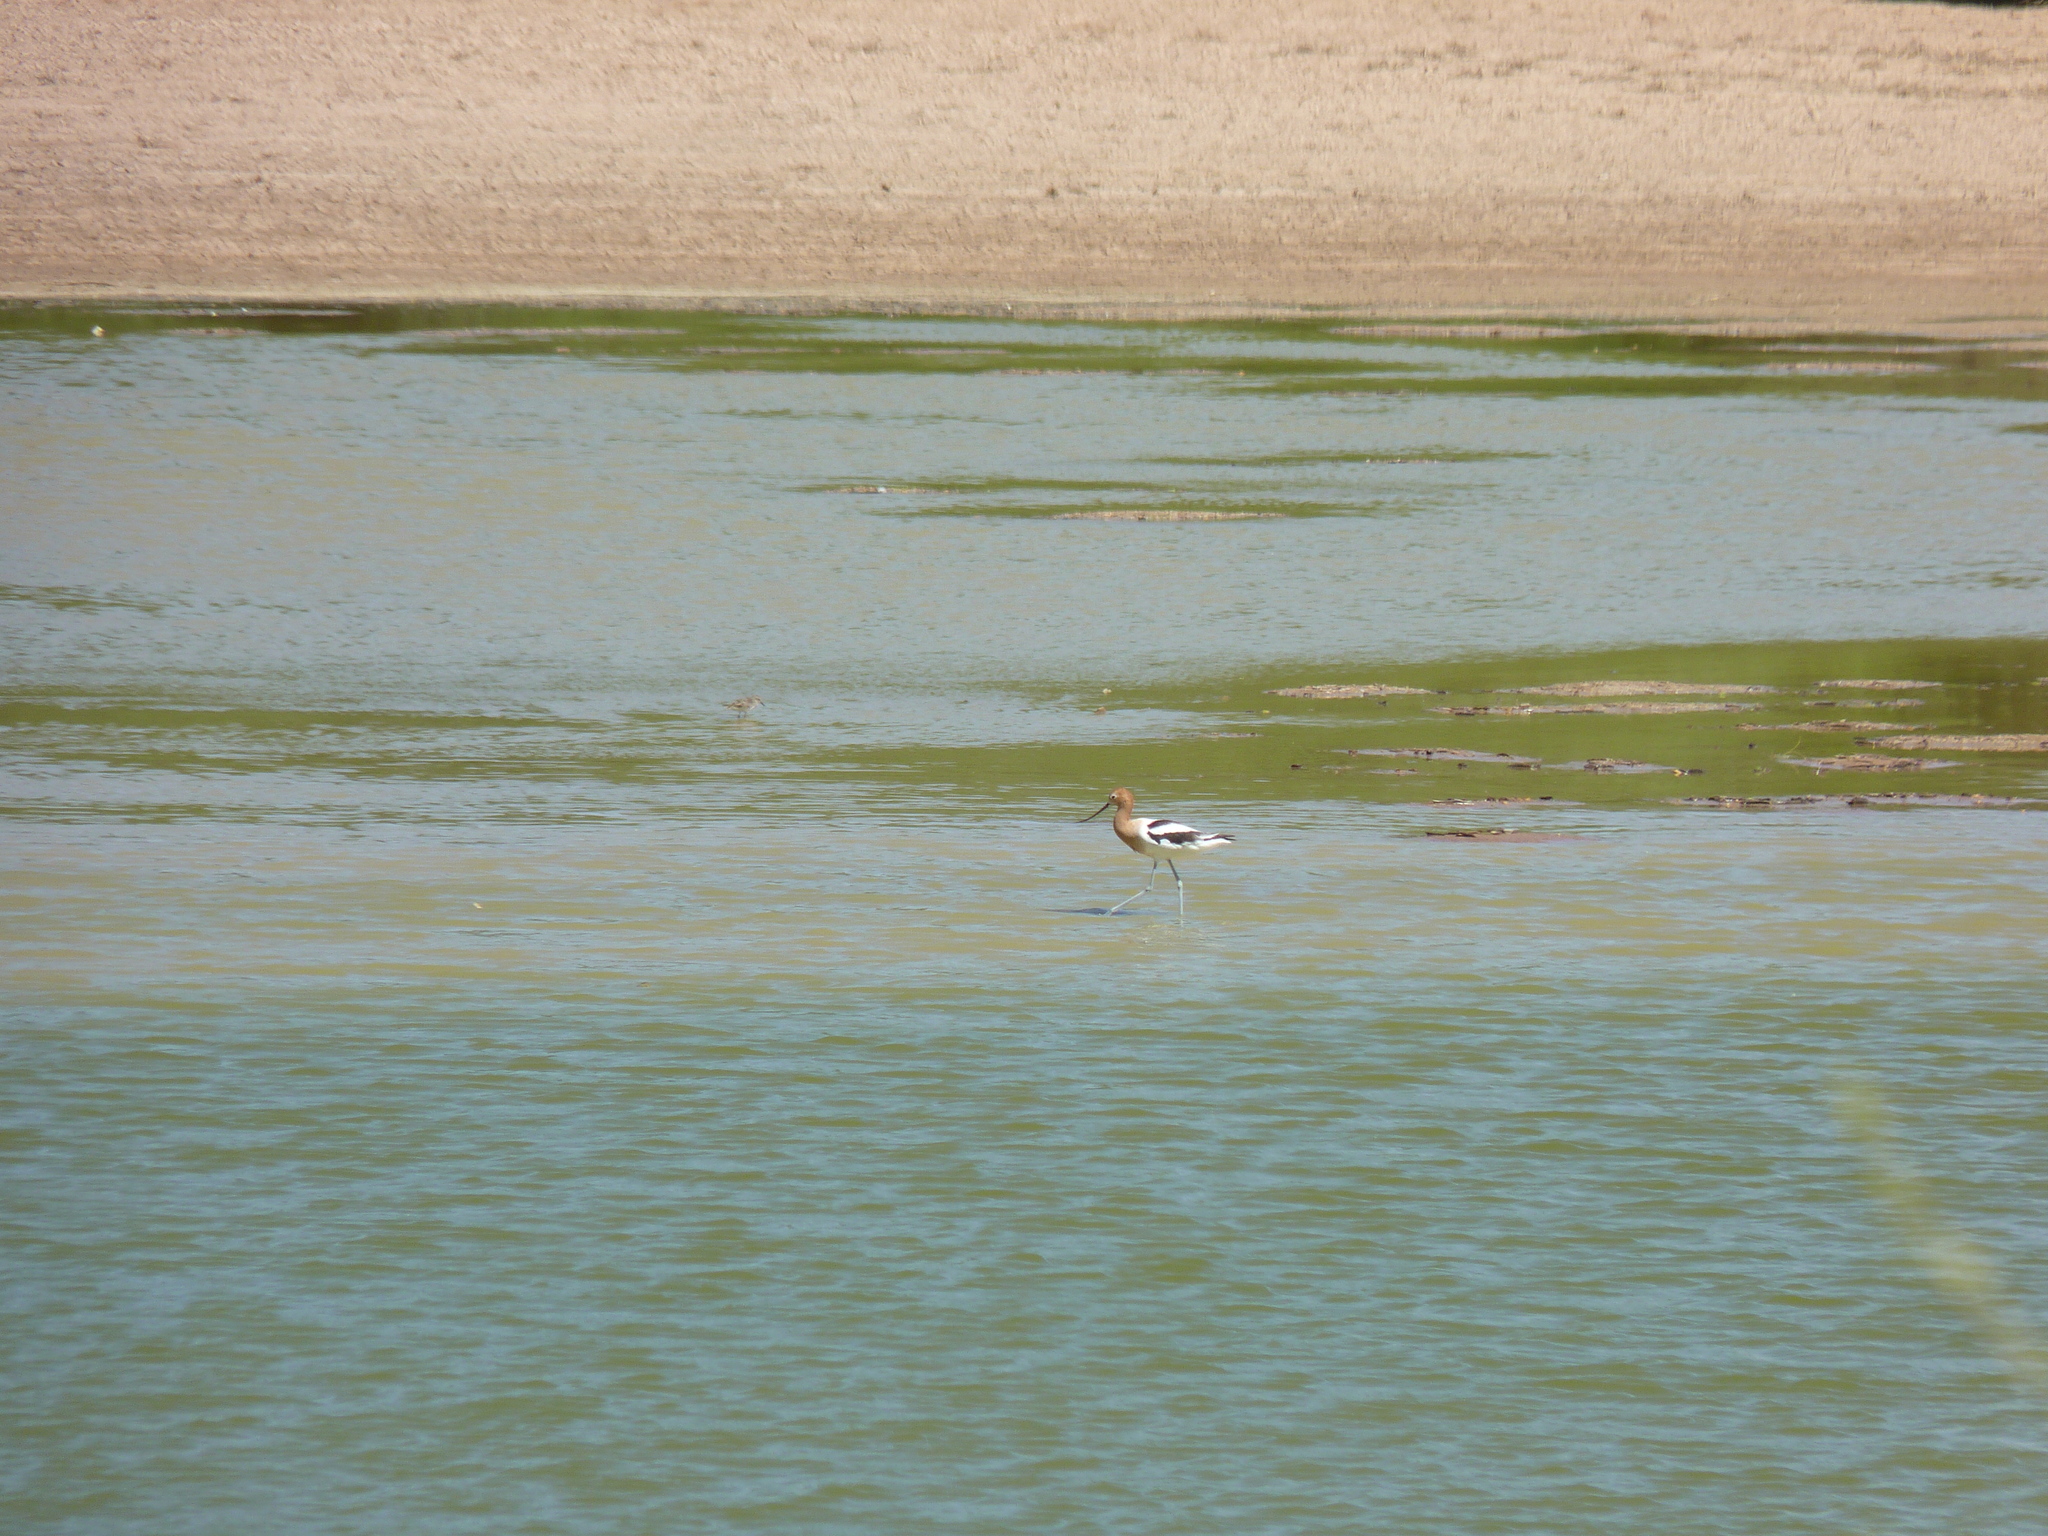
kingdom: Animalia
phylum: Chordata
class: Aves
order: Charadriiformes
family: Recurvirostridae
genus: Recurvirostra
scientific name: Recurvirostra americana
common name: American avocet
